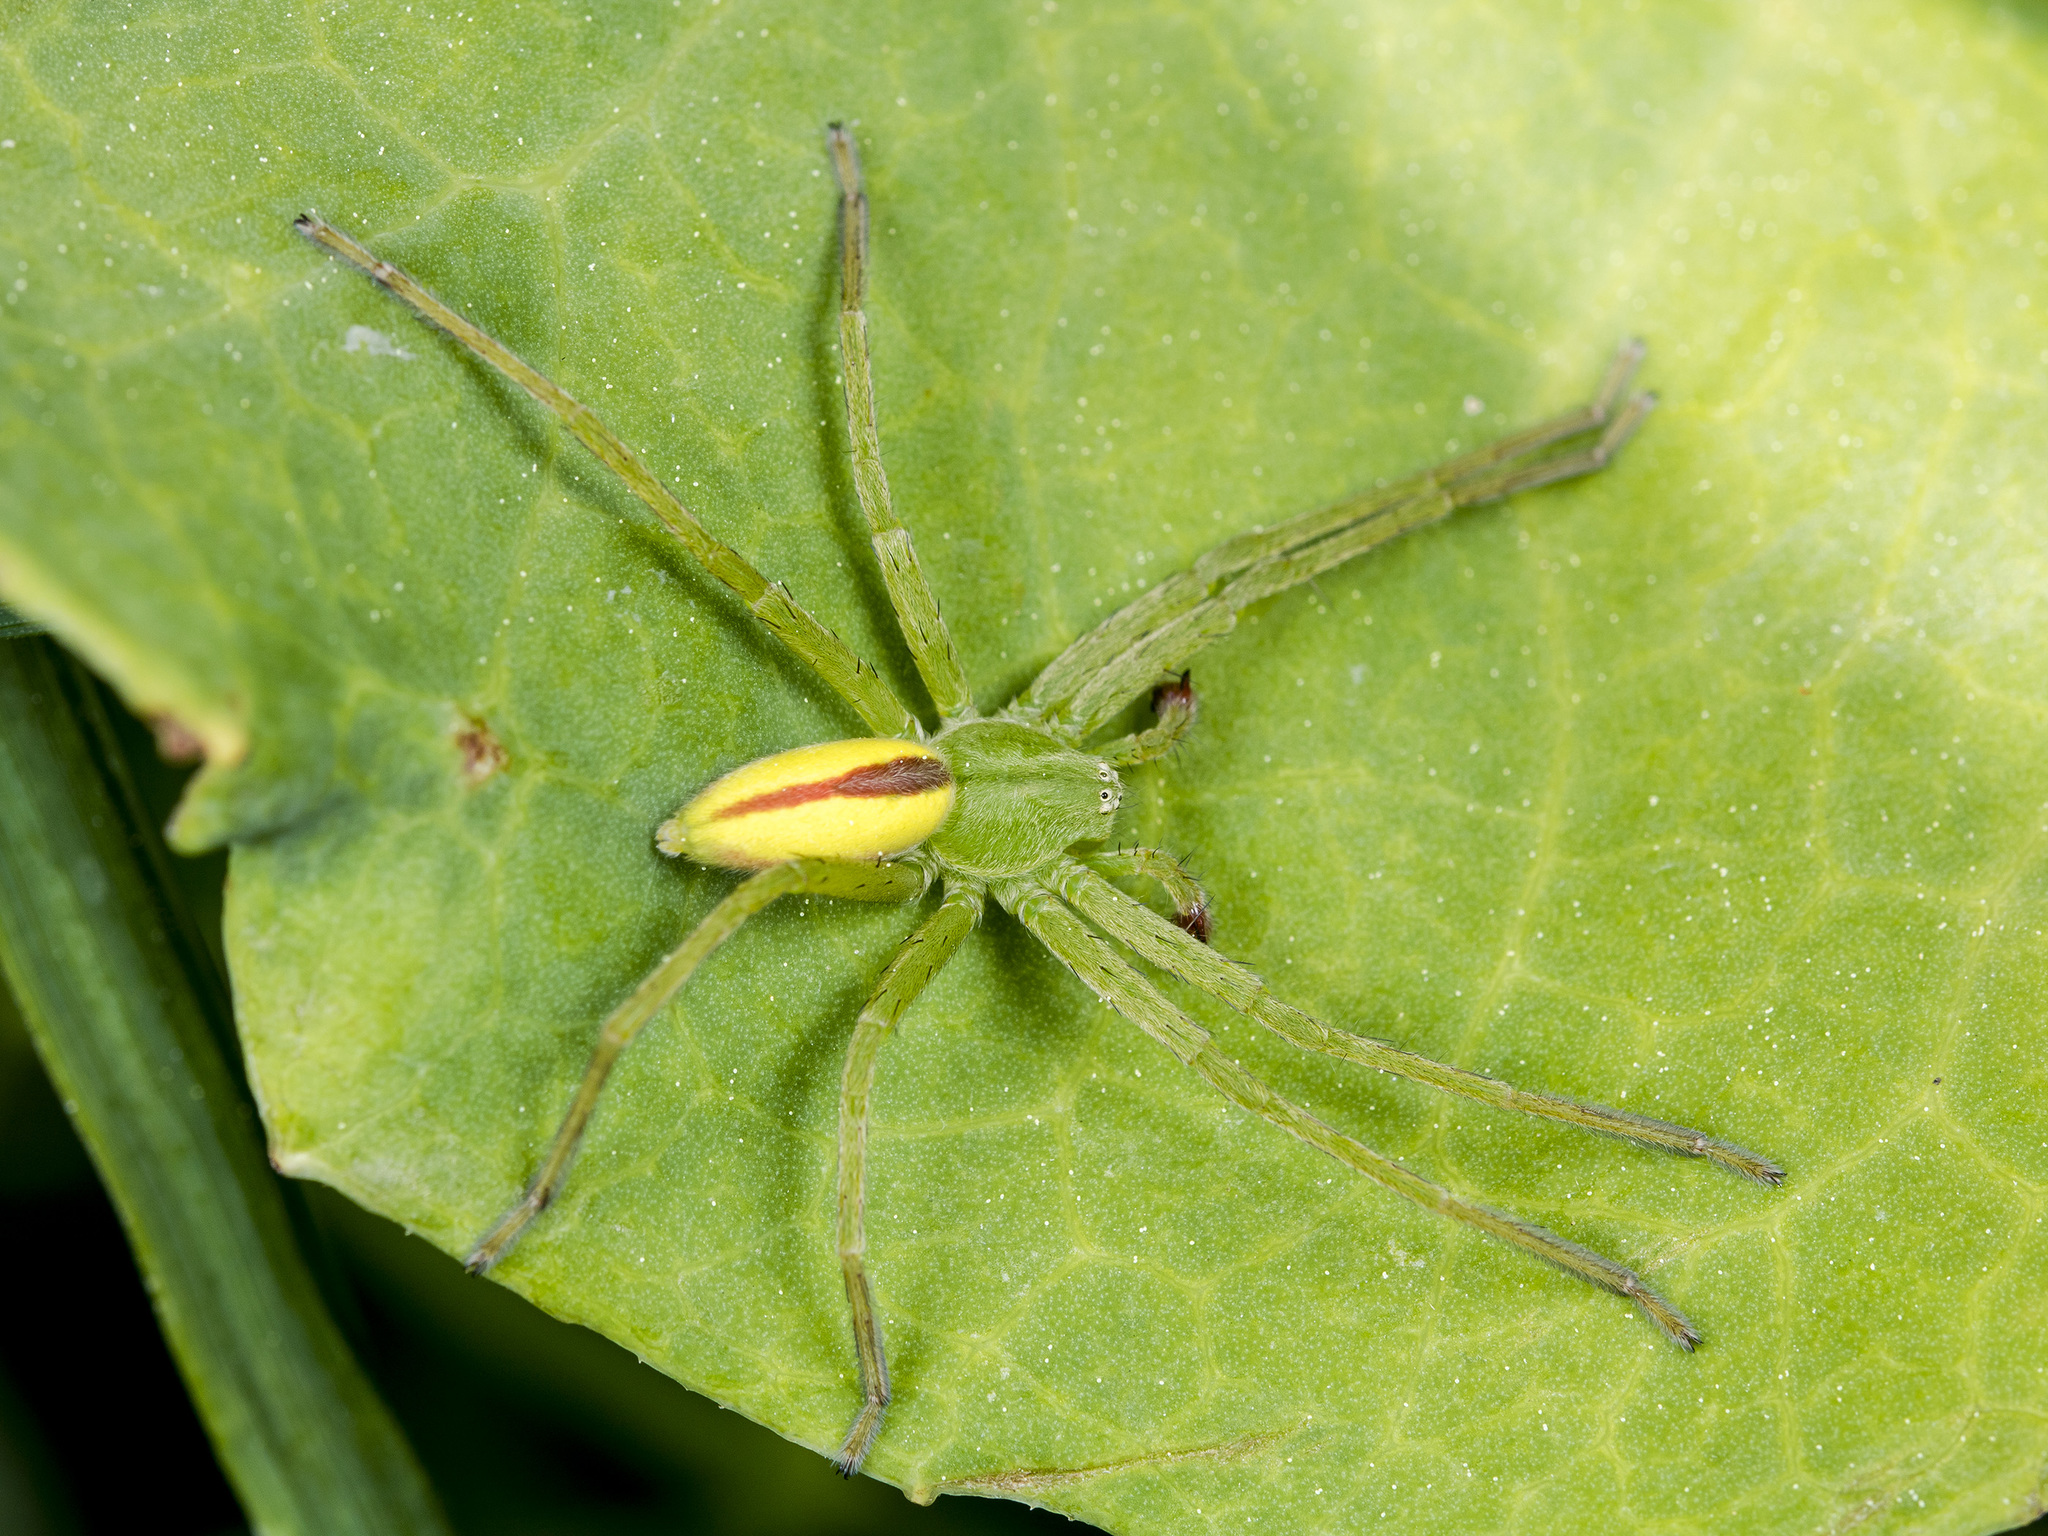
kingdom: Animalia
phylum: Arthropoda
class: Arachnida
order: Araneae
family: Sparassidae
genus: Micrommata
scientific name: Micrommata virescens
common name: Green spider
